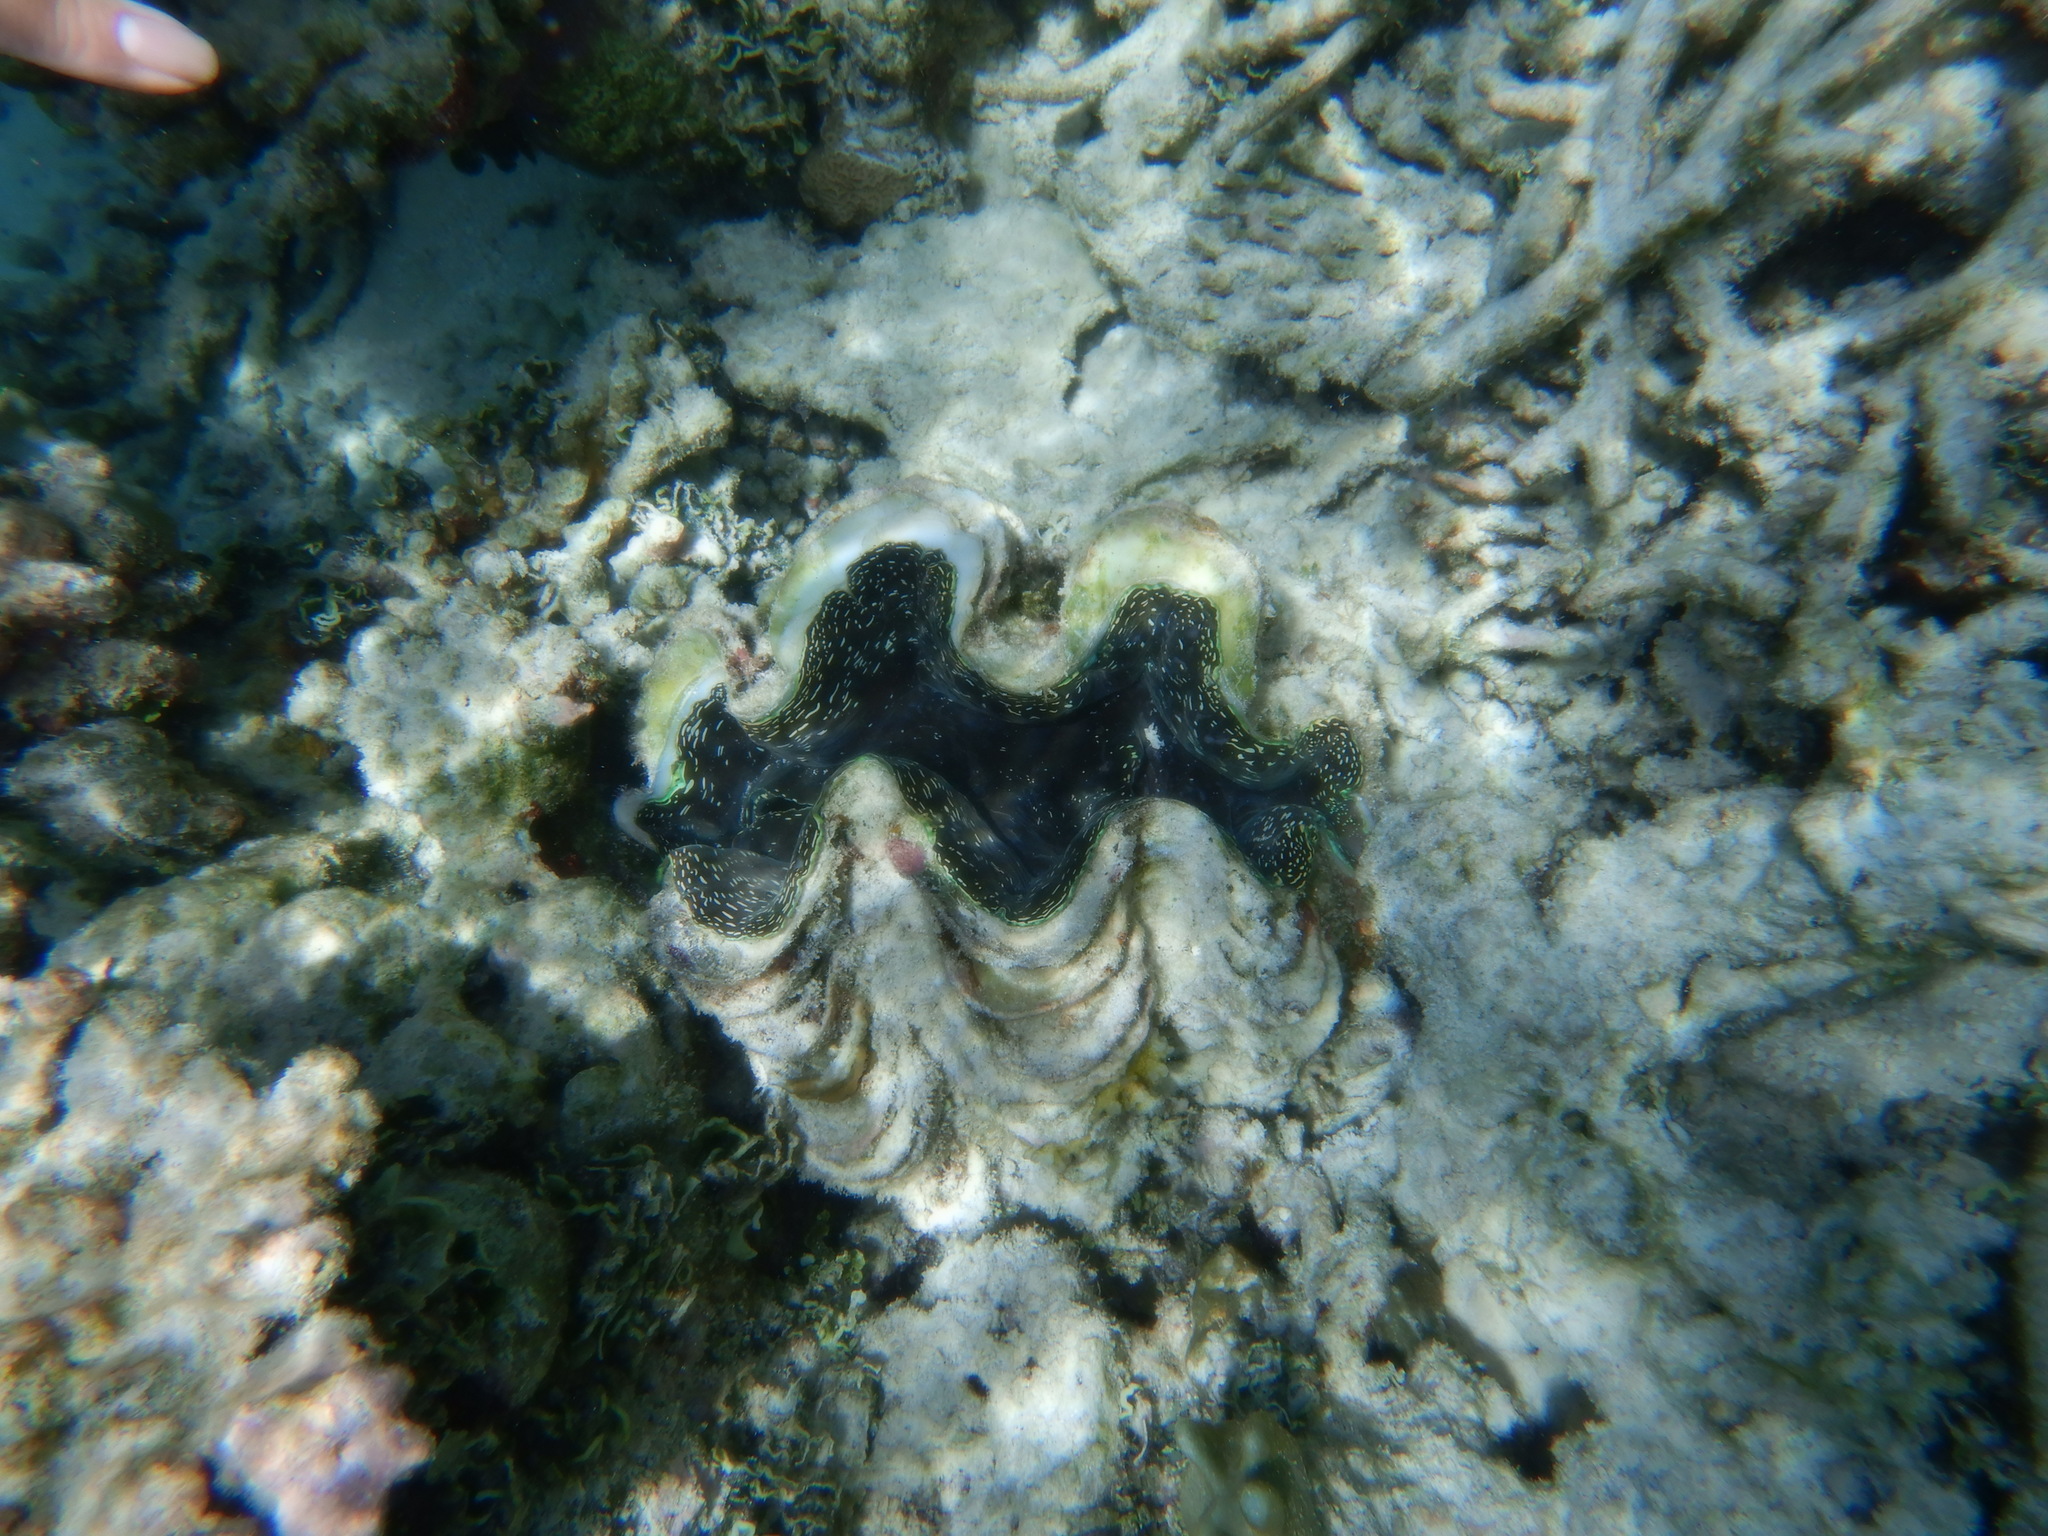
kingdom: Animalia
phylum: Mollusca
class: Bivalvia
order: Cardiida
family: Cardiidae
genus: Tridacna
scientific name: Tridacna squamosa
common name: Fluted clam
